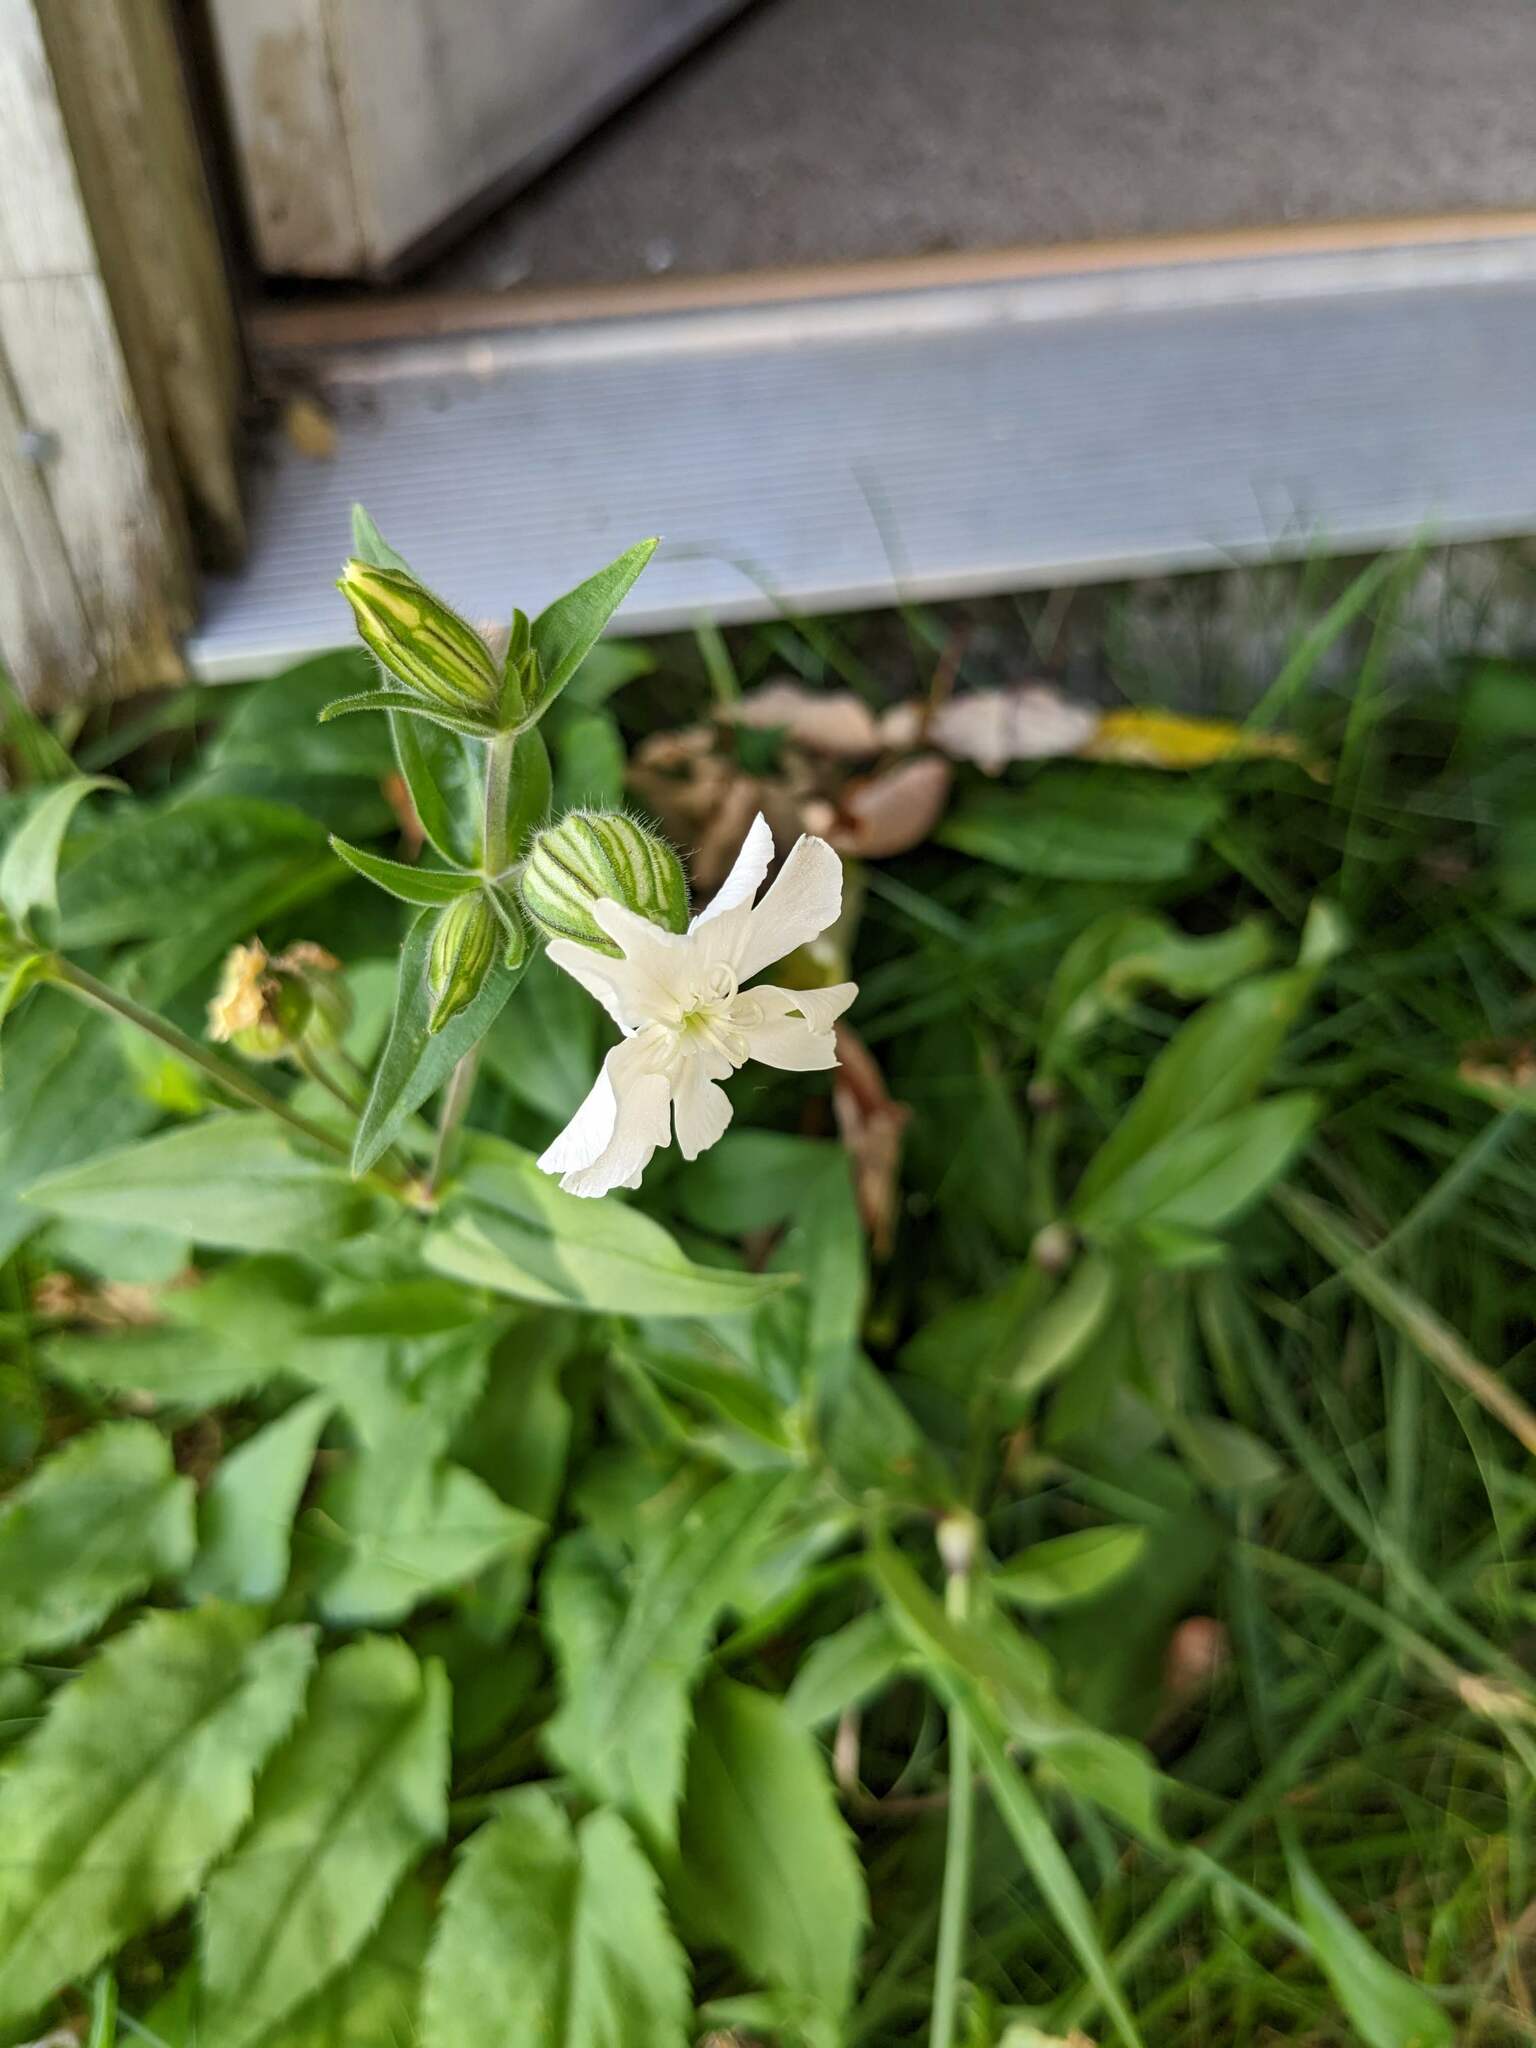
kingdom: Plantae
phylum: Tracheophyta
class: Magnoliopsida
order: Caryophyllales
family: Caryophyllaceae
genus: Silene
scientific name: Silene latifolia
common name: White campion
